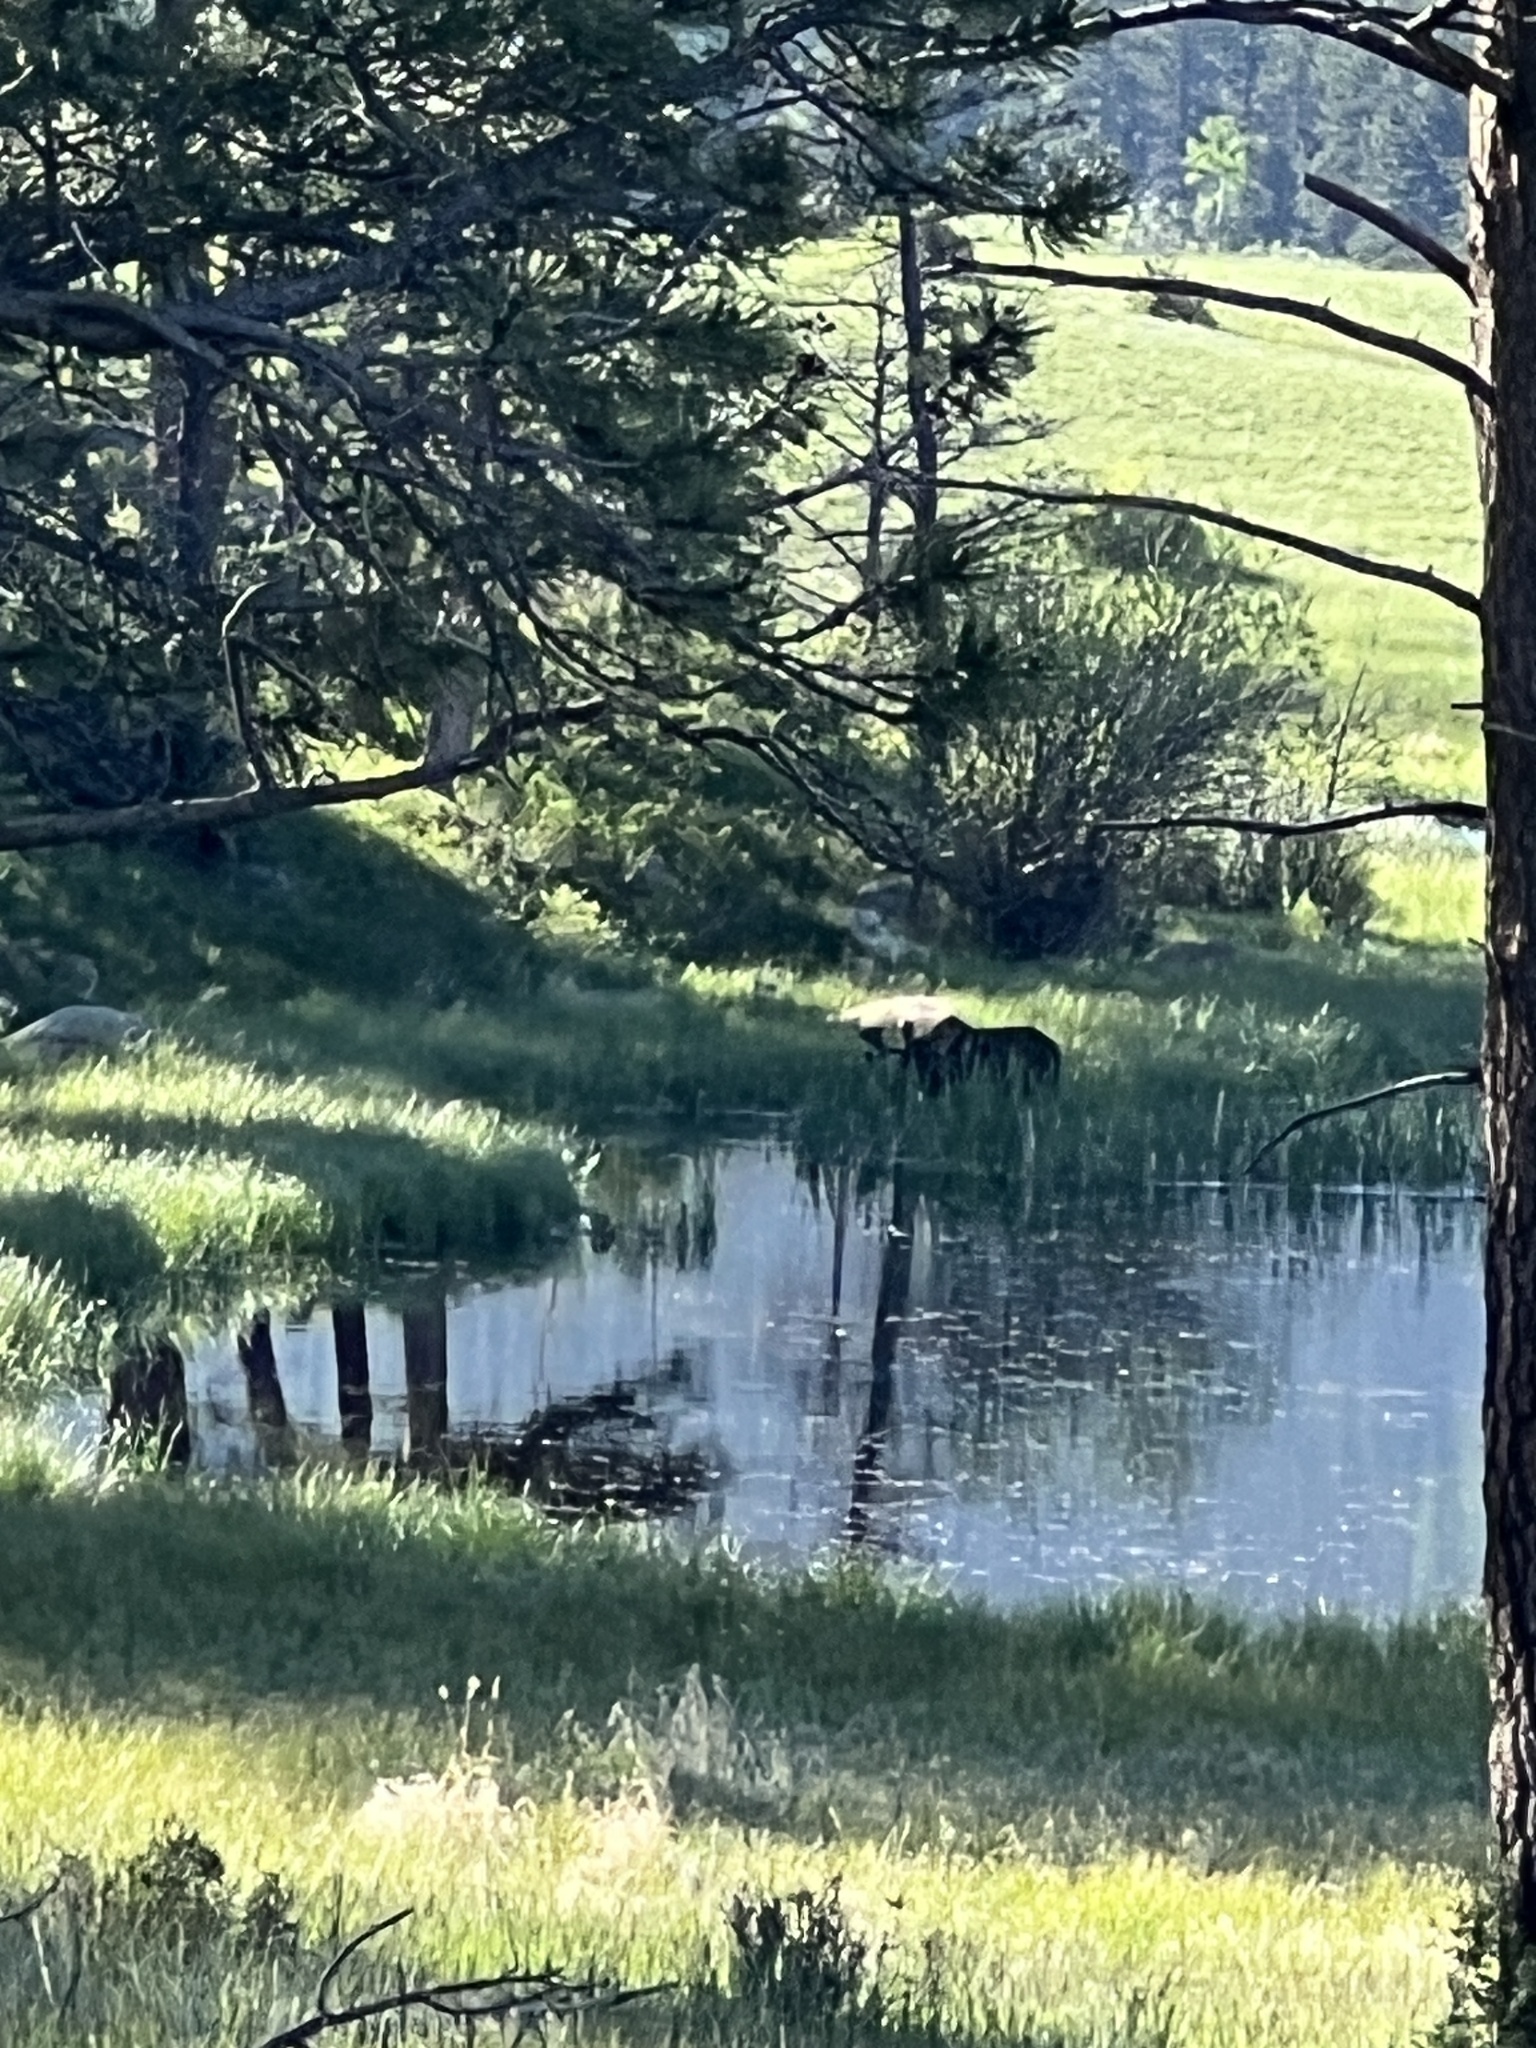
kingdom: Animalia
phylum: Chordata
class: Mammalia
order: Artiodactyla
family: Cervidae
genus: Alces
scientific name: Alces alces
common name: Moose
